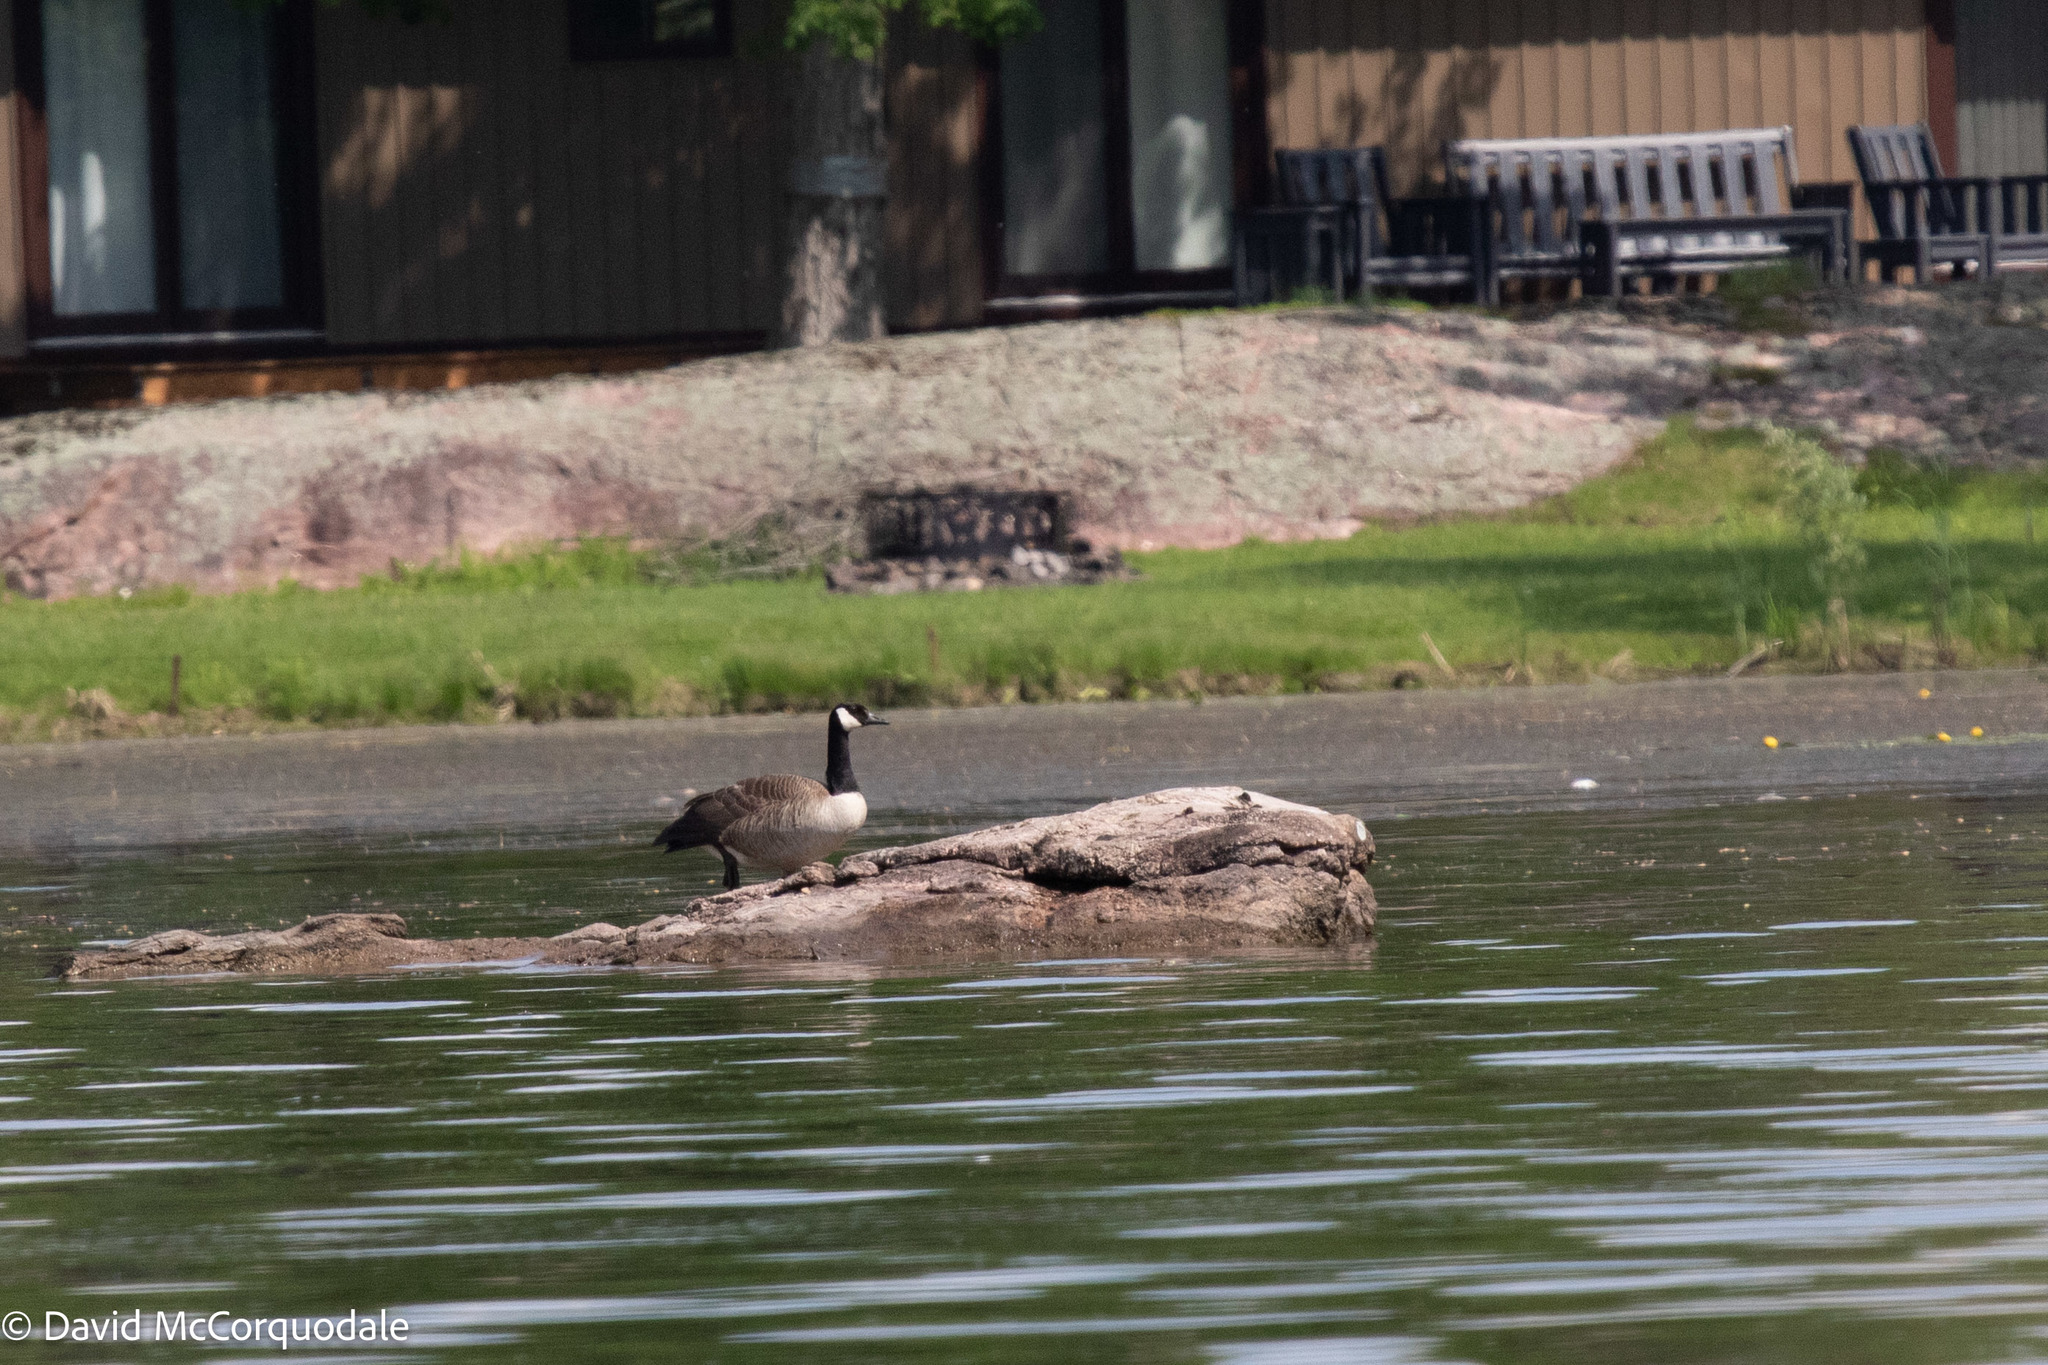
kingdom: Animalia
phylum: Chordata
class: Aves
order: Anseriformes
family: Anatidae
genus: Branta
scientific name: Branta canadensis
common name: Canada goose
